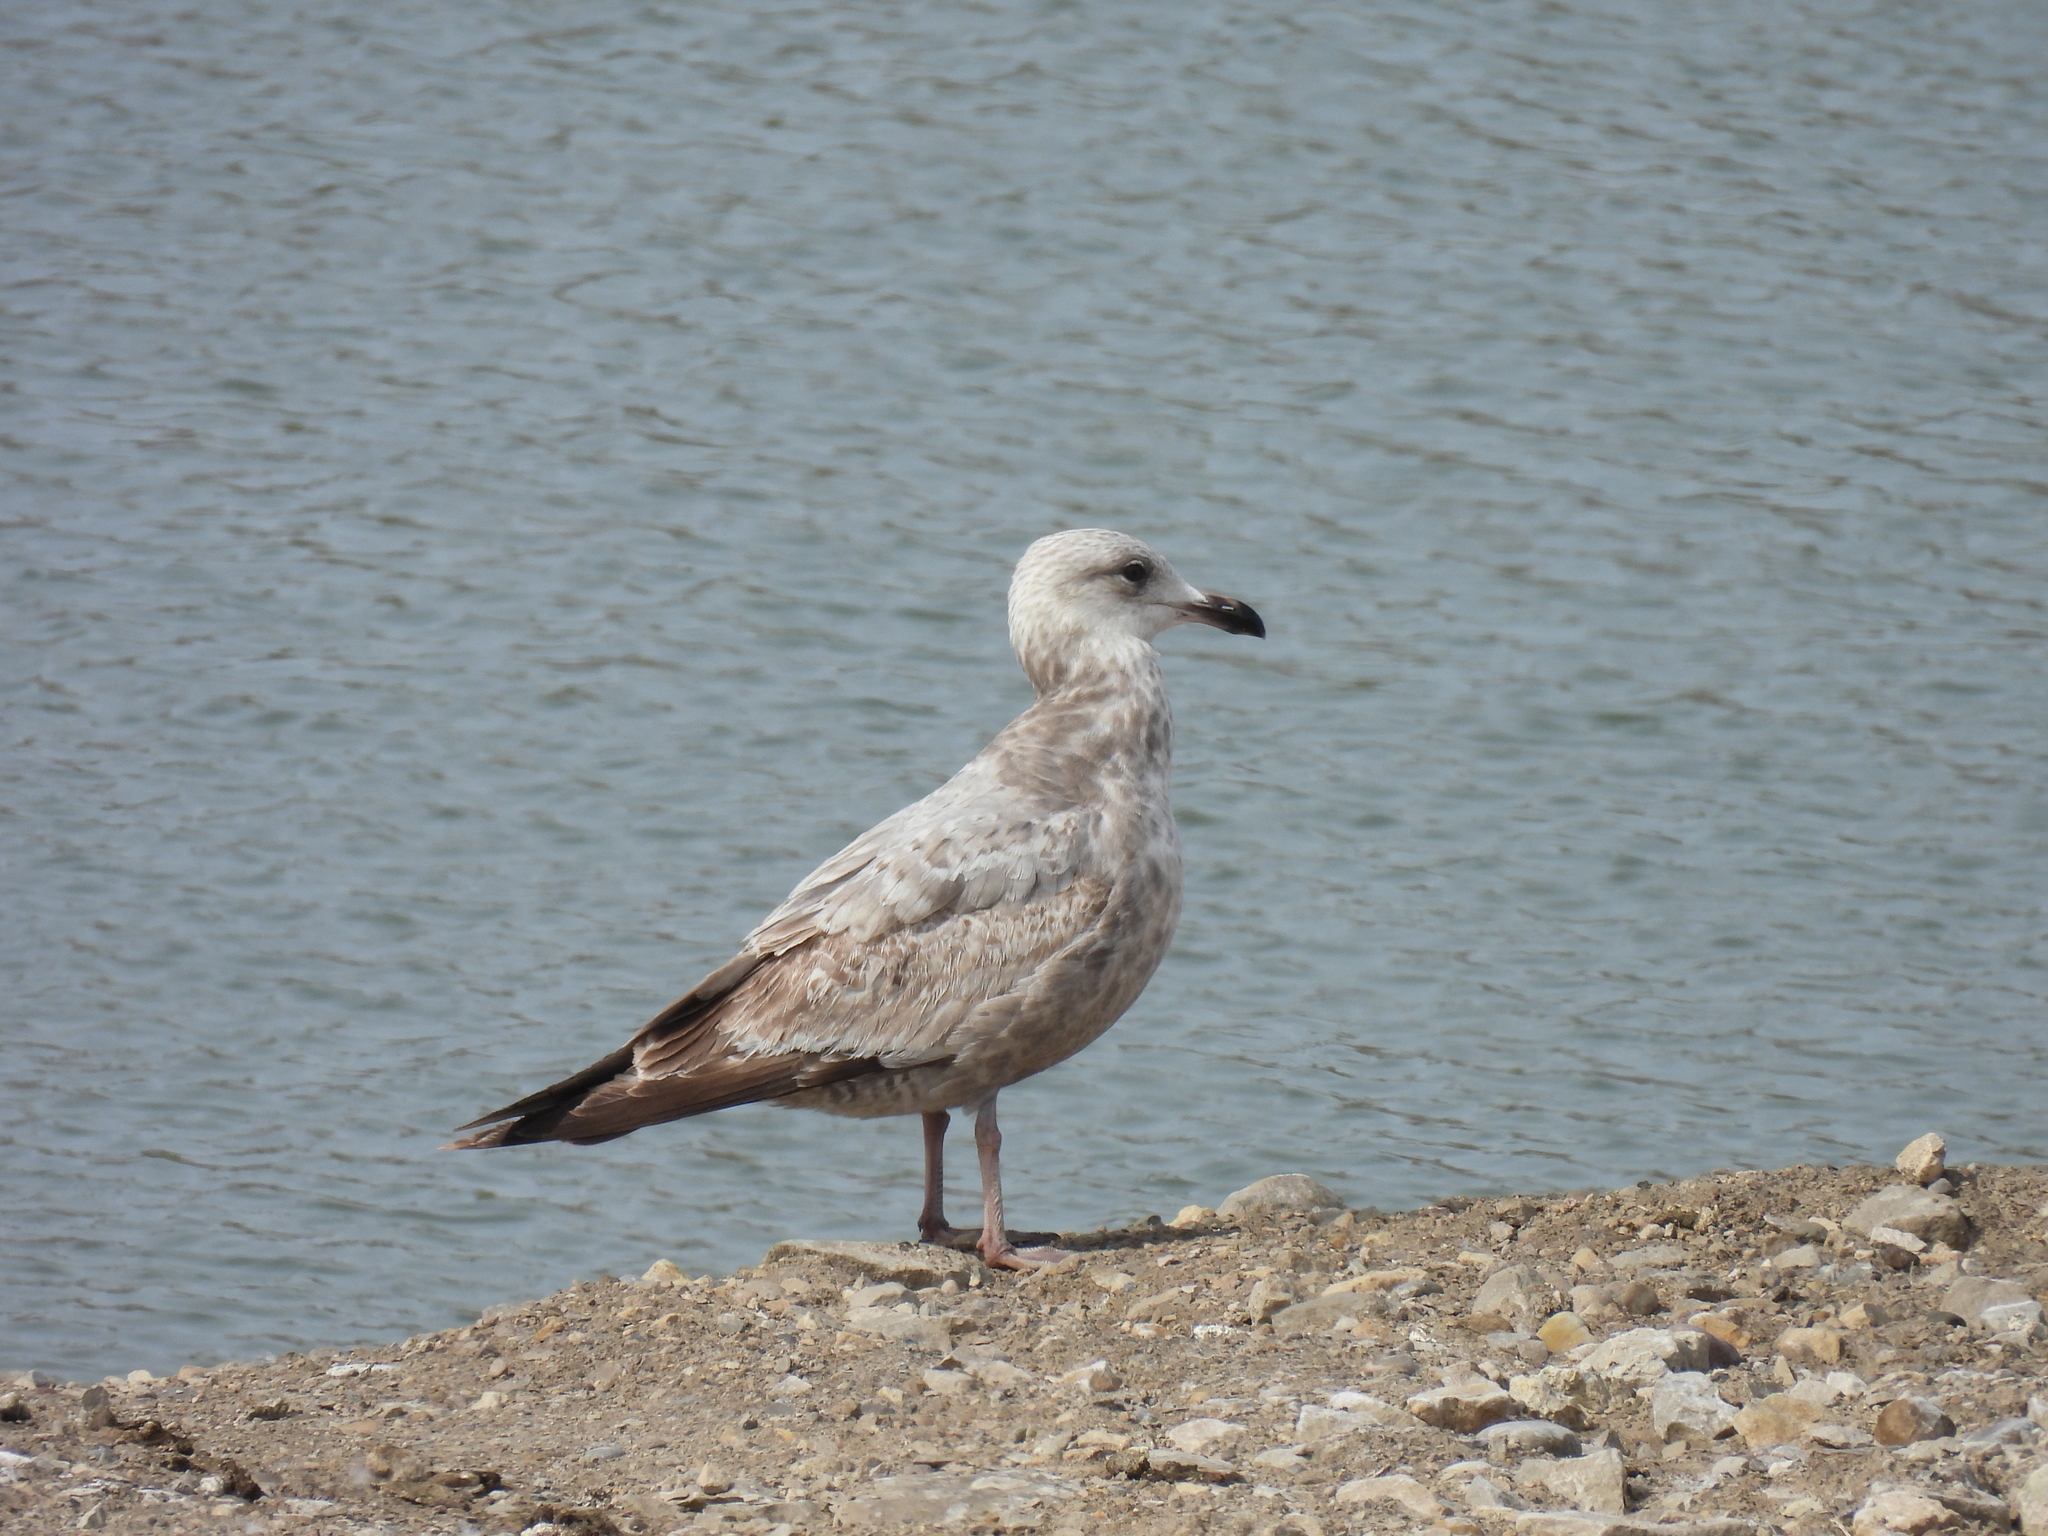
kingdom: Animalia
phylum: Chordata
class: Aves
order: Charadriiformes
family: Laridae
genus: Larus
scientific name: Larus argentatus
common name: Herring gull
